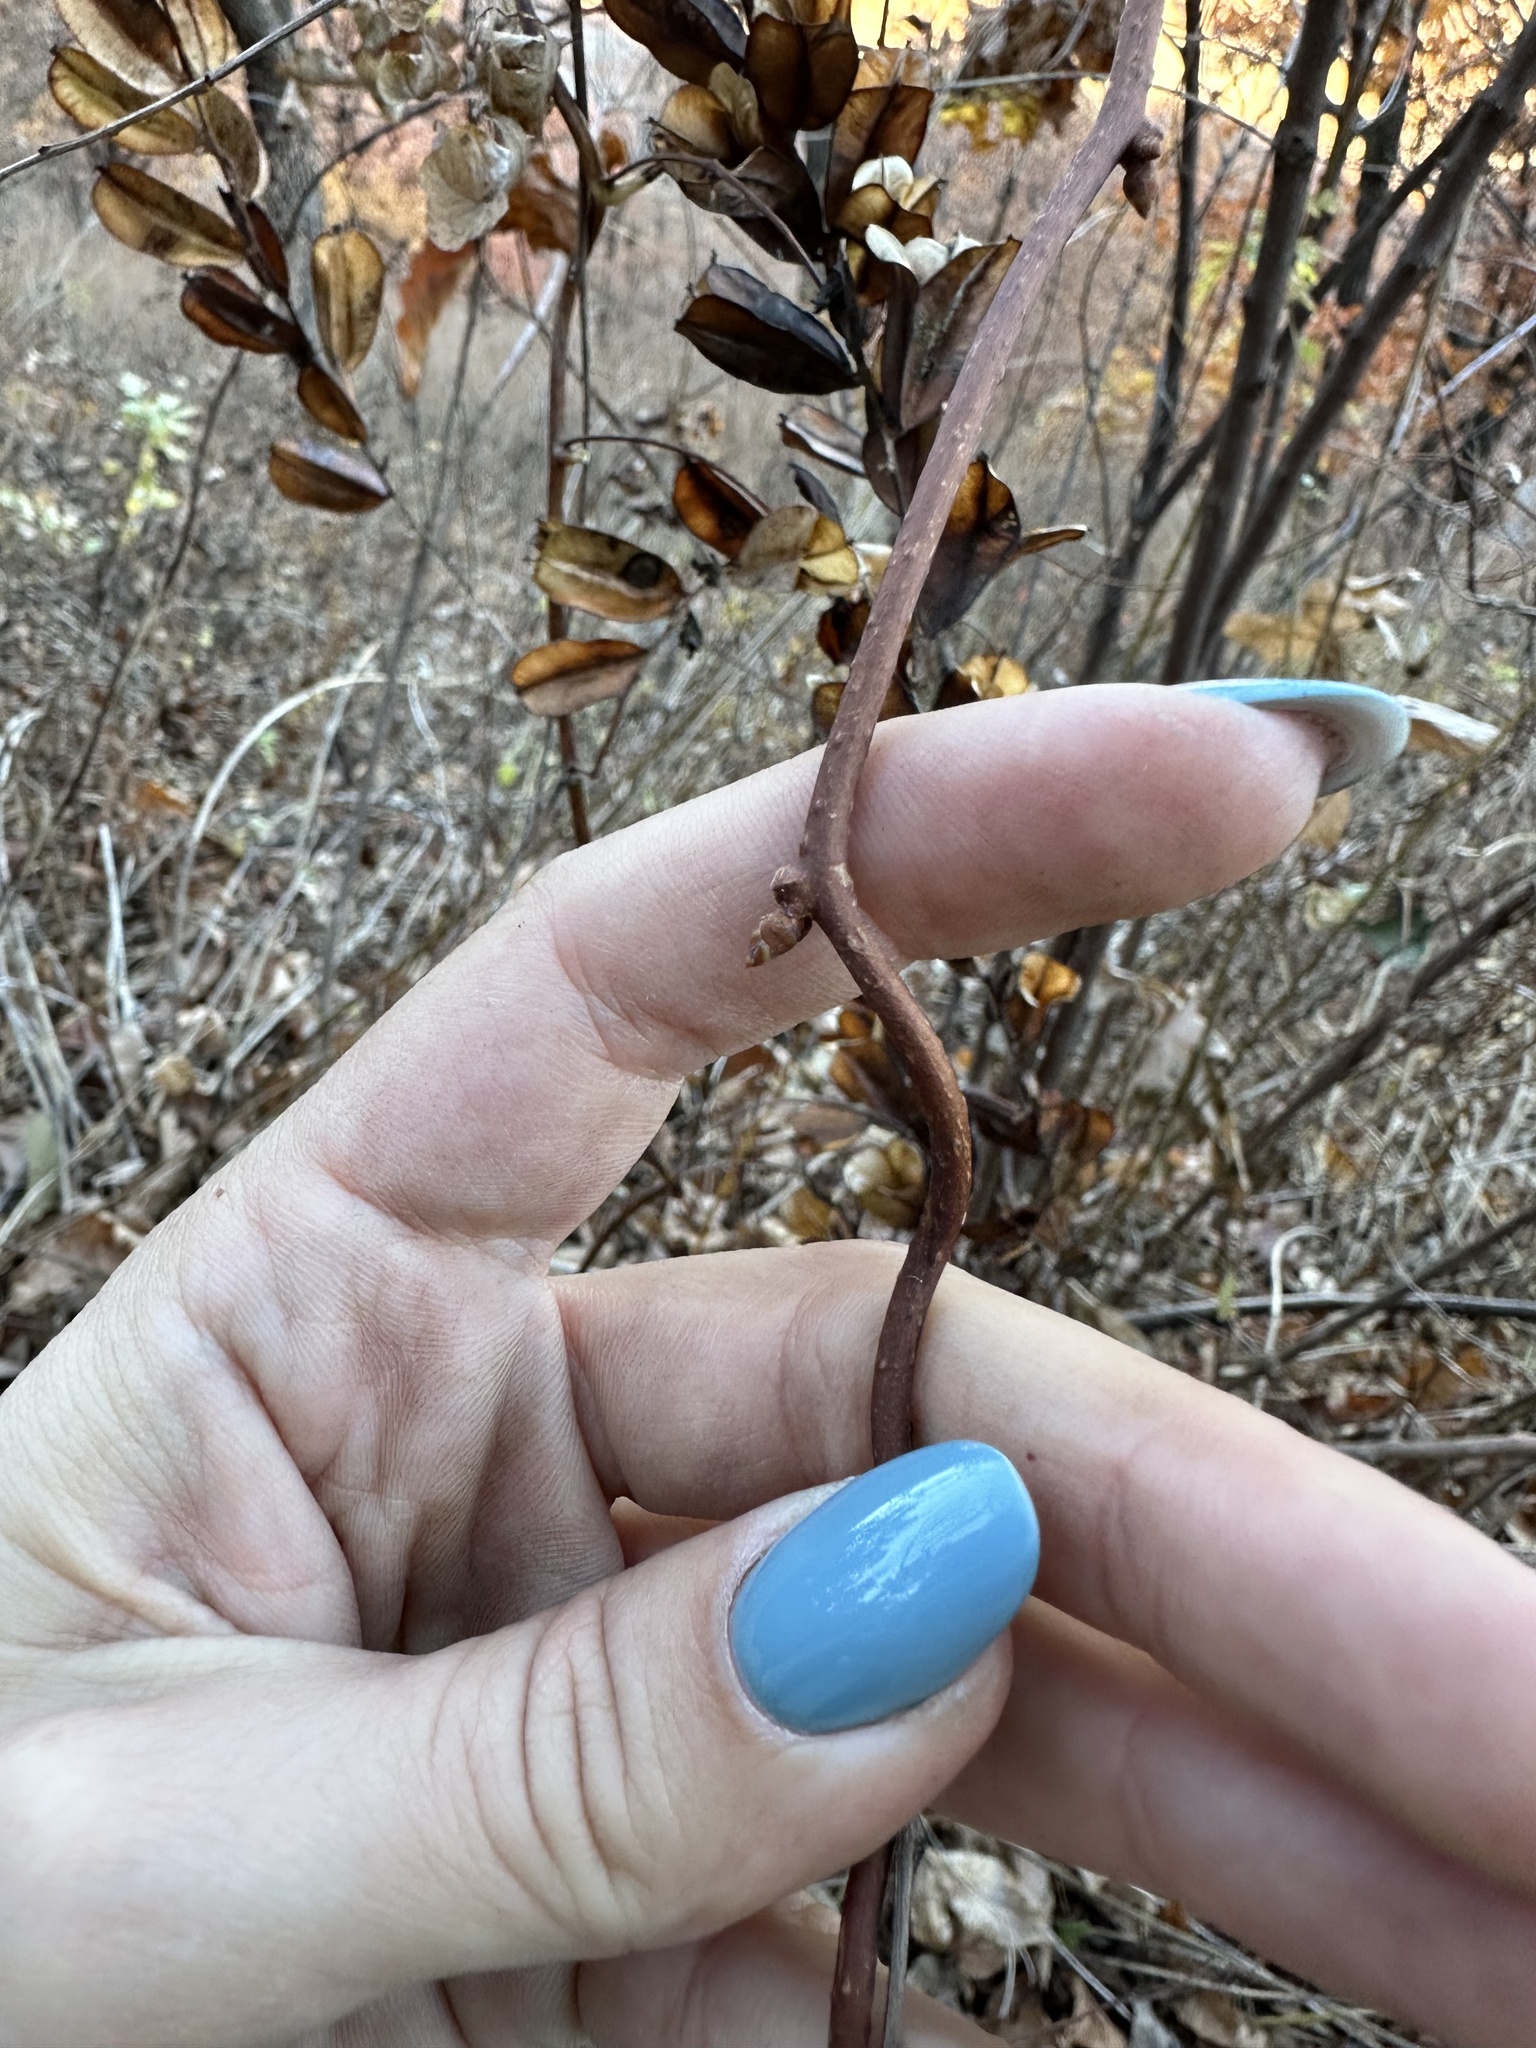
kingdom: Plantae
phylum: Tracheophyta
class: Magnoliopsida
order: Austrobaileyales
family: Schisandraceae
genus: Schisandra
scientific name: Schisandra chinensis
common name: Magnolia-vine
